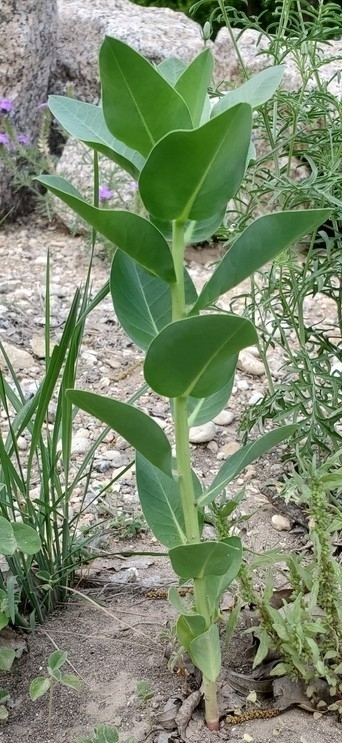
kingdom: Plantae
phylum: Tracheophyta
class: Magnoliopsida
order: Malpighiales
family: Euphorbiaceae
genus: Euphorbia
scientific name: Euphorbia marginata
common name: Ghostweed
